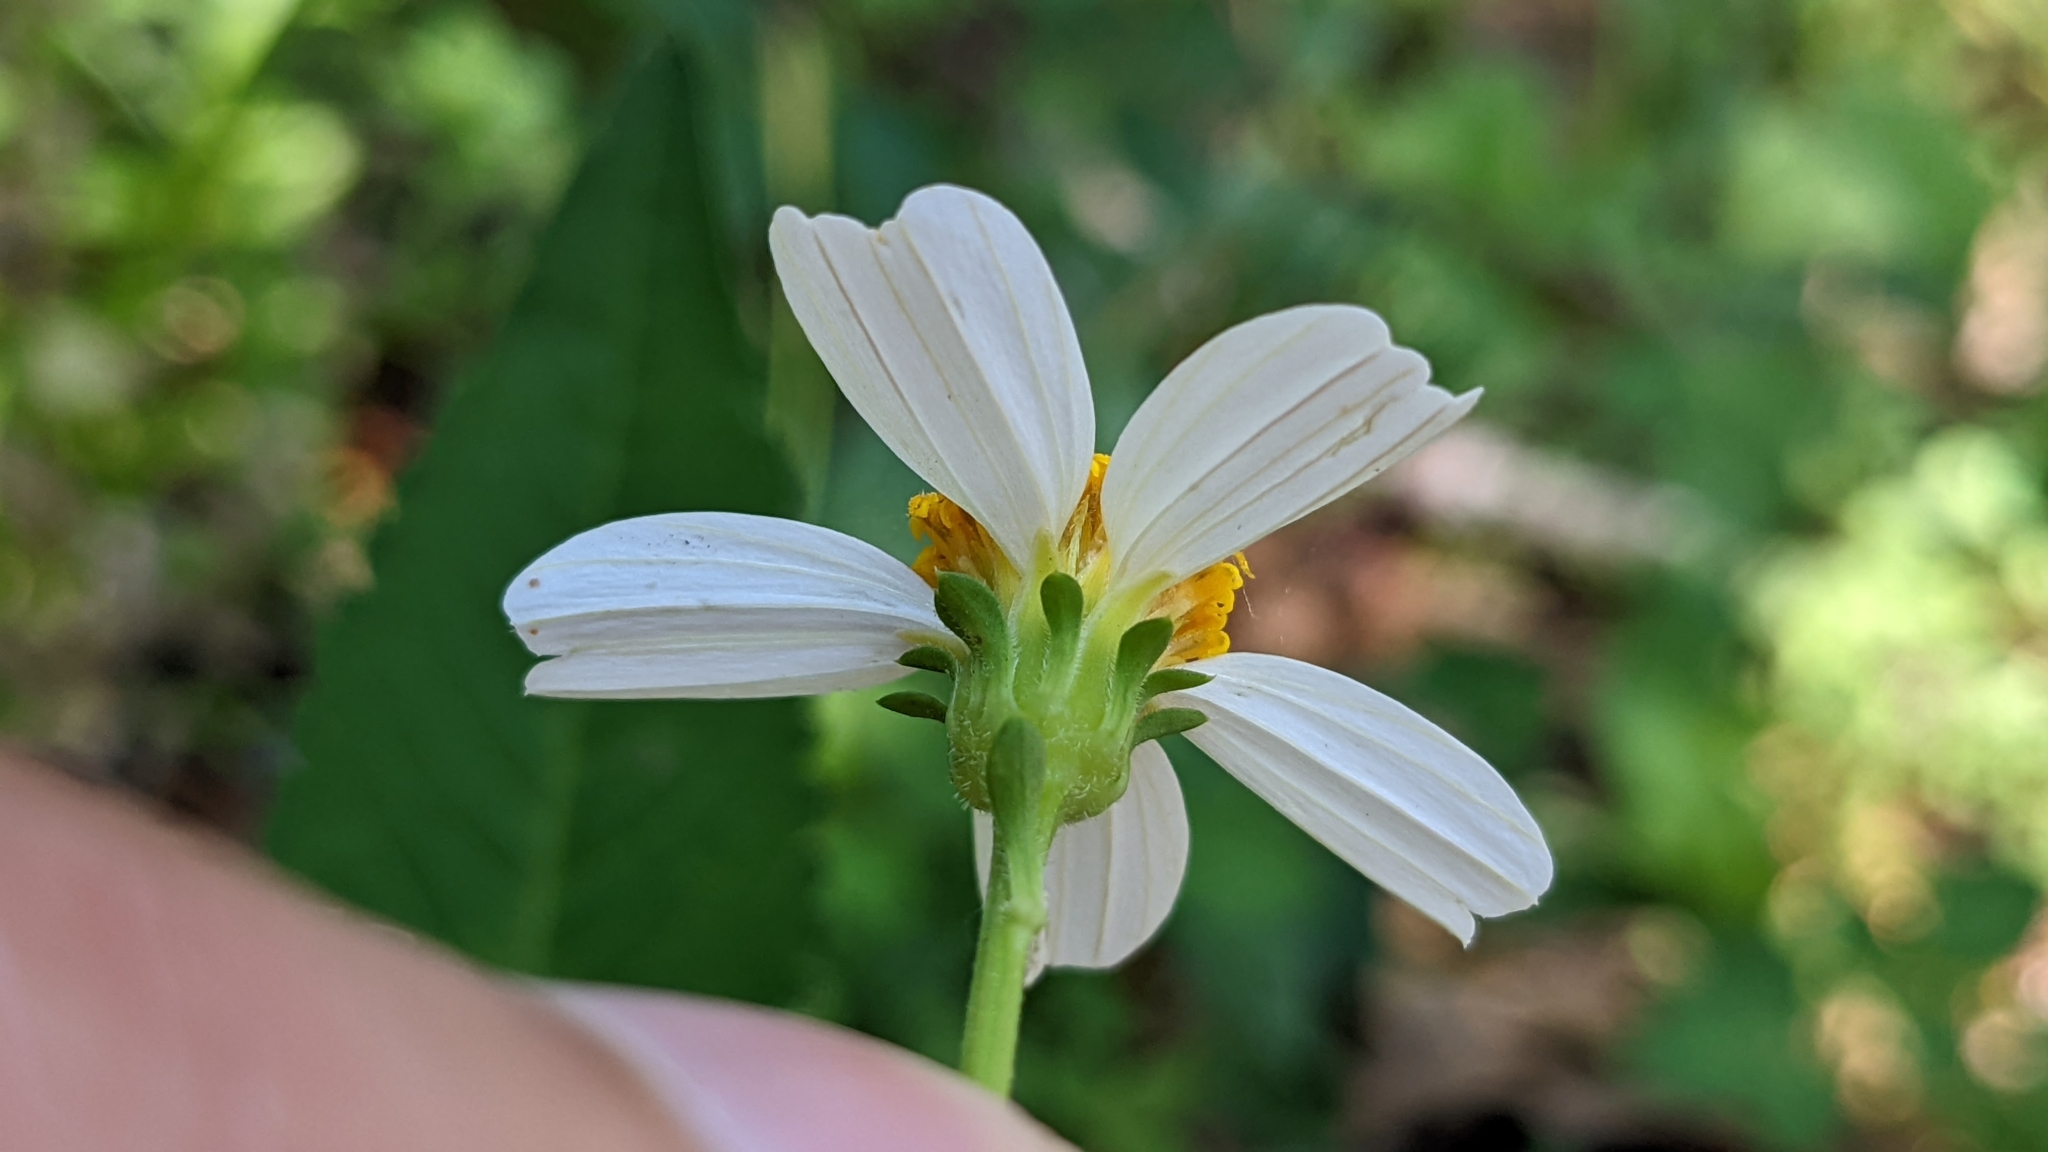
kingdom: Plantae
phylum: Tracheophyta
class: Magnoliopsida
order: Asterales
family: Asteraceae
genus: Bidens
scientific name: Bidens alba
